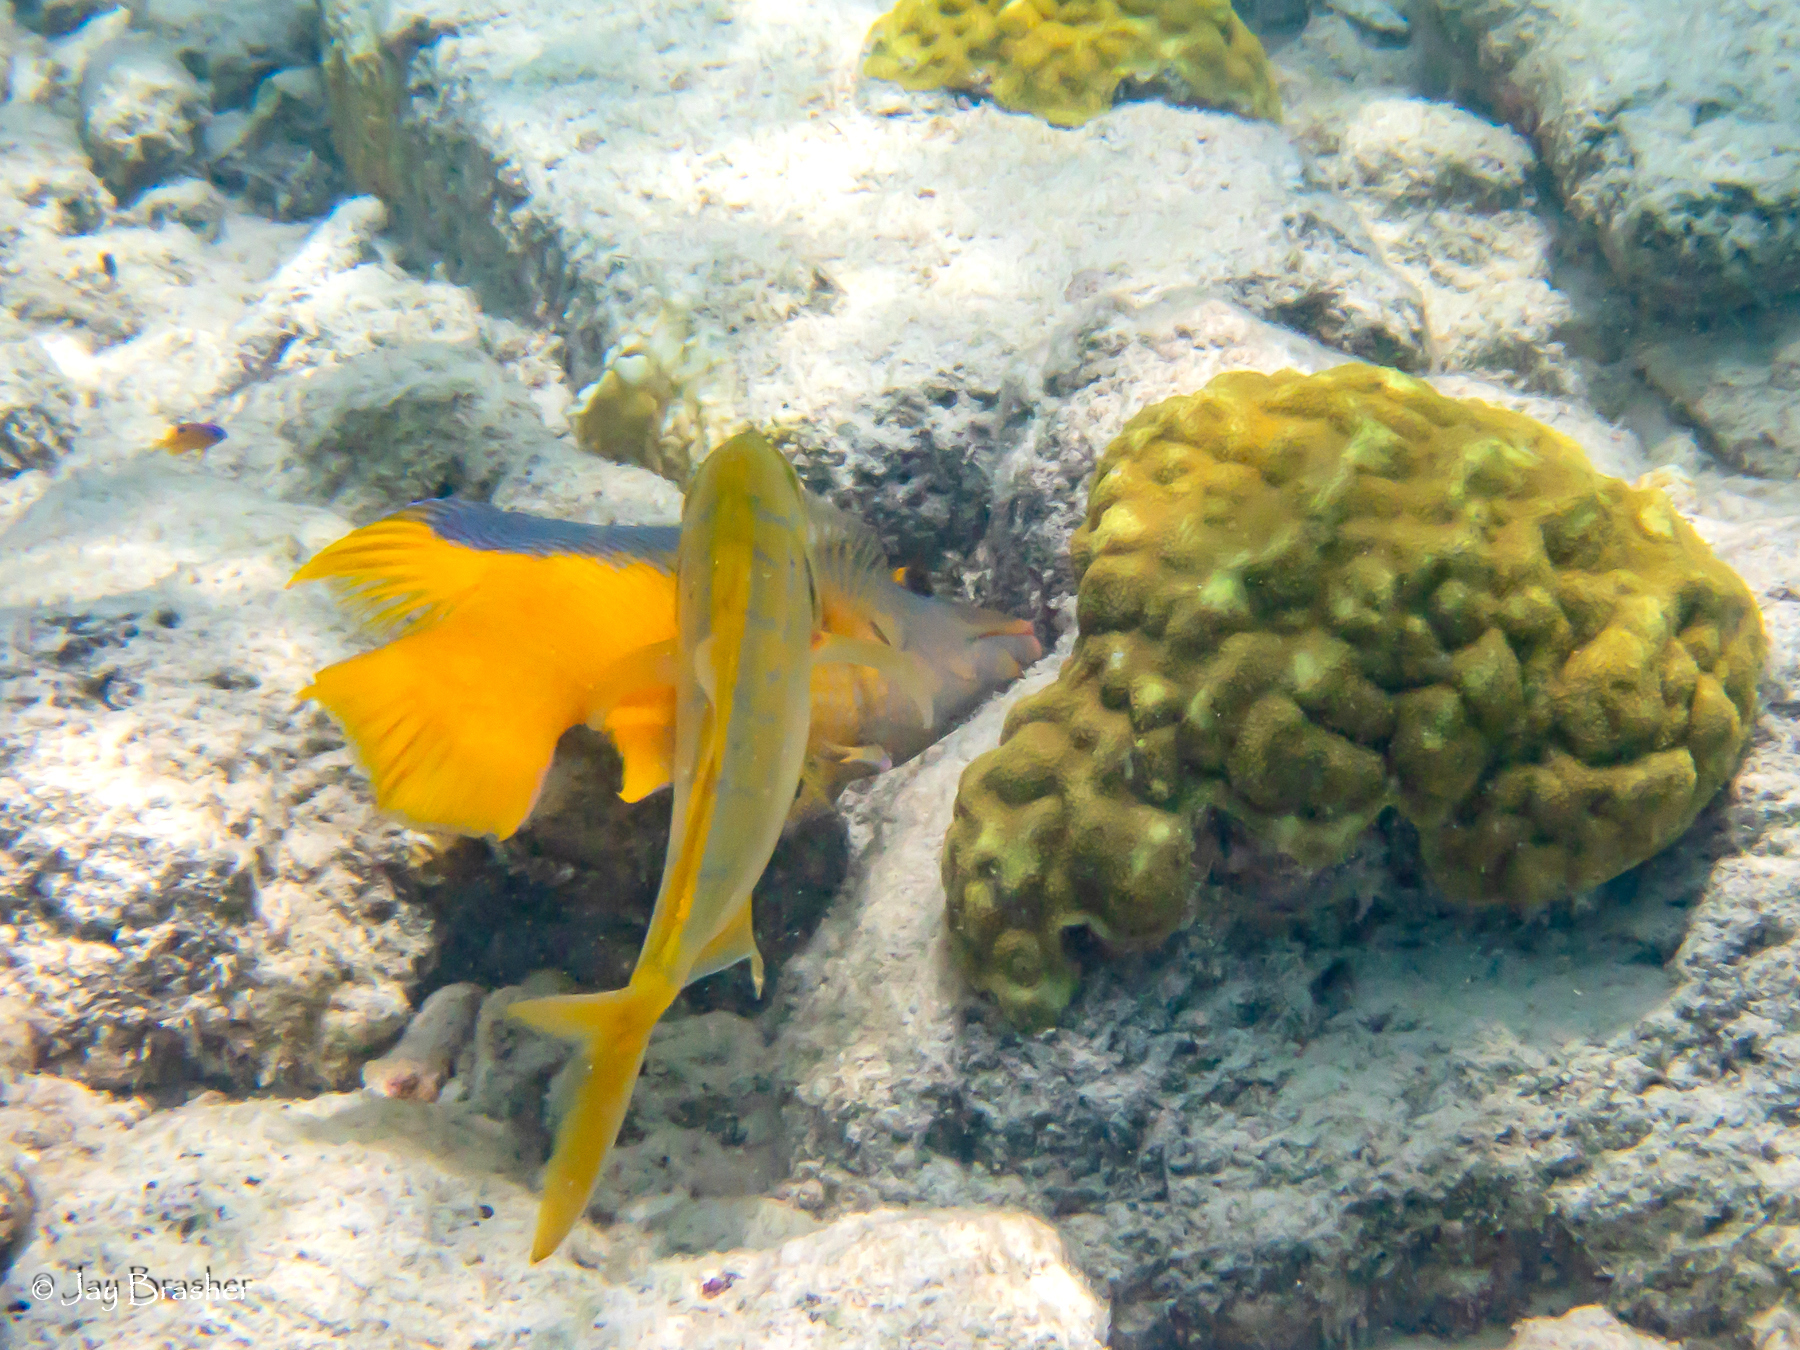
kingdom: Animalia
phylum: Chordata
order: Perciformes
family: Carangidae
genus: Carangoides
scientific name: Carangoides bartholomaei
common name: Yellow jack
